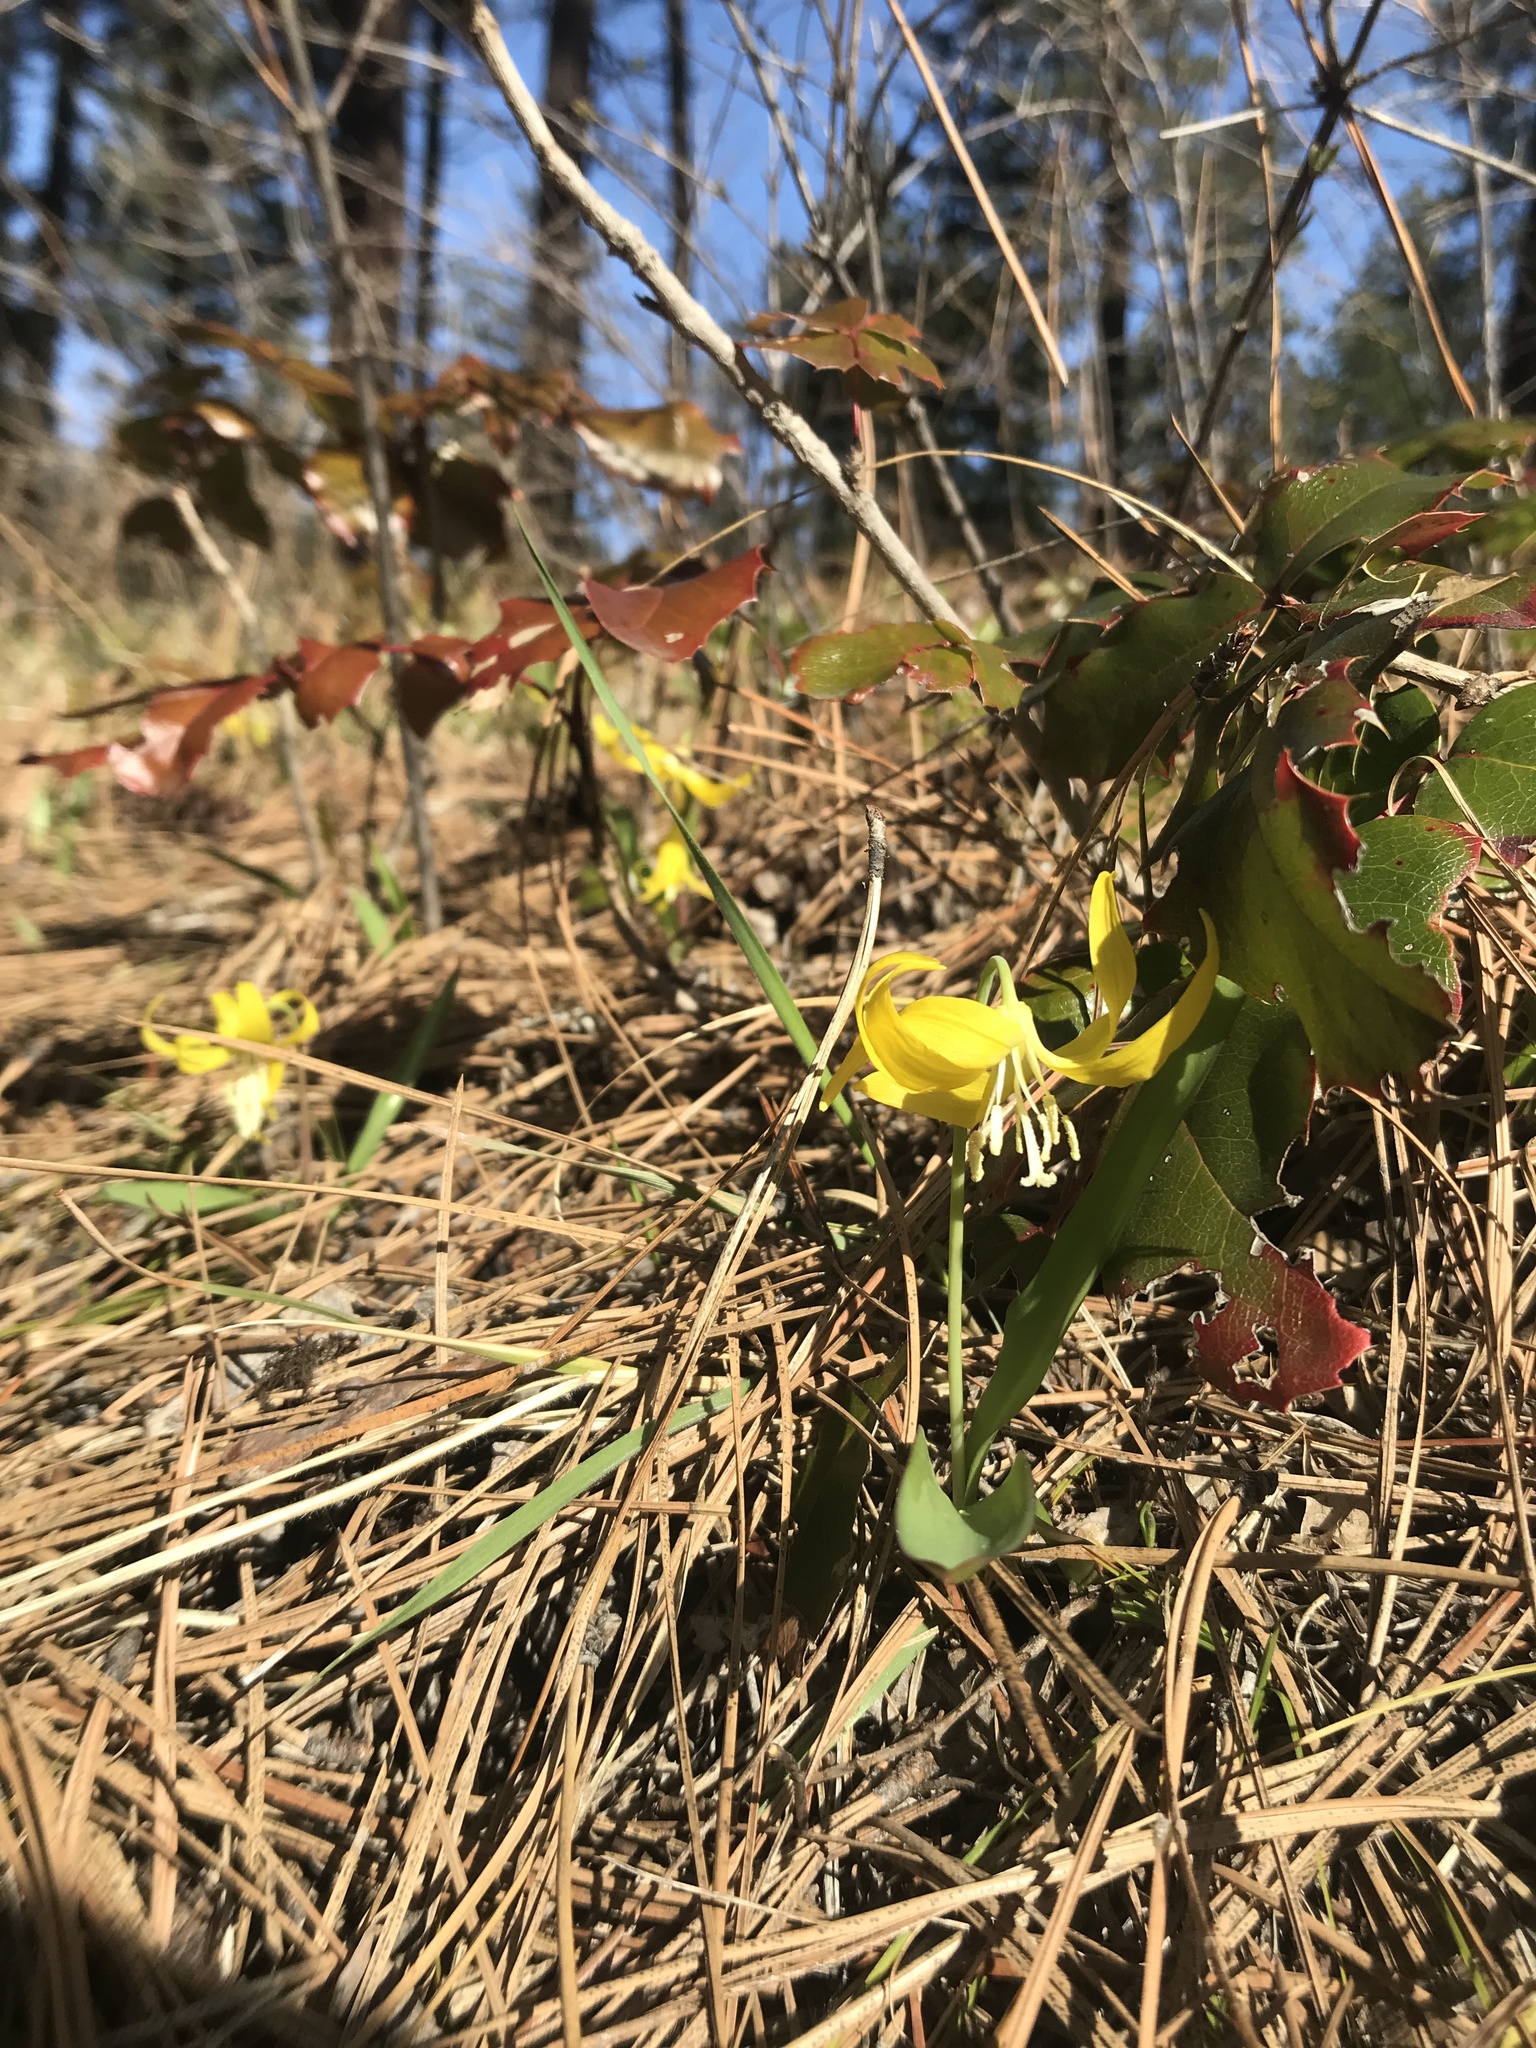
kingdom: Plantae
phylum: Tracheophyta
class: Liliopsida
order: Liliales
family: Liliaceae
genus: Erythronium
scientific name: Erythronium grandiflorum
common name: Avalanche-lily
